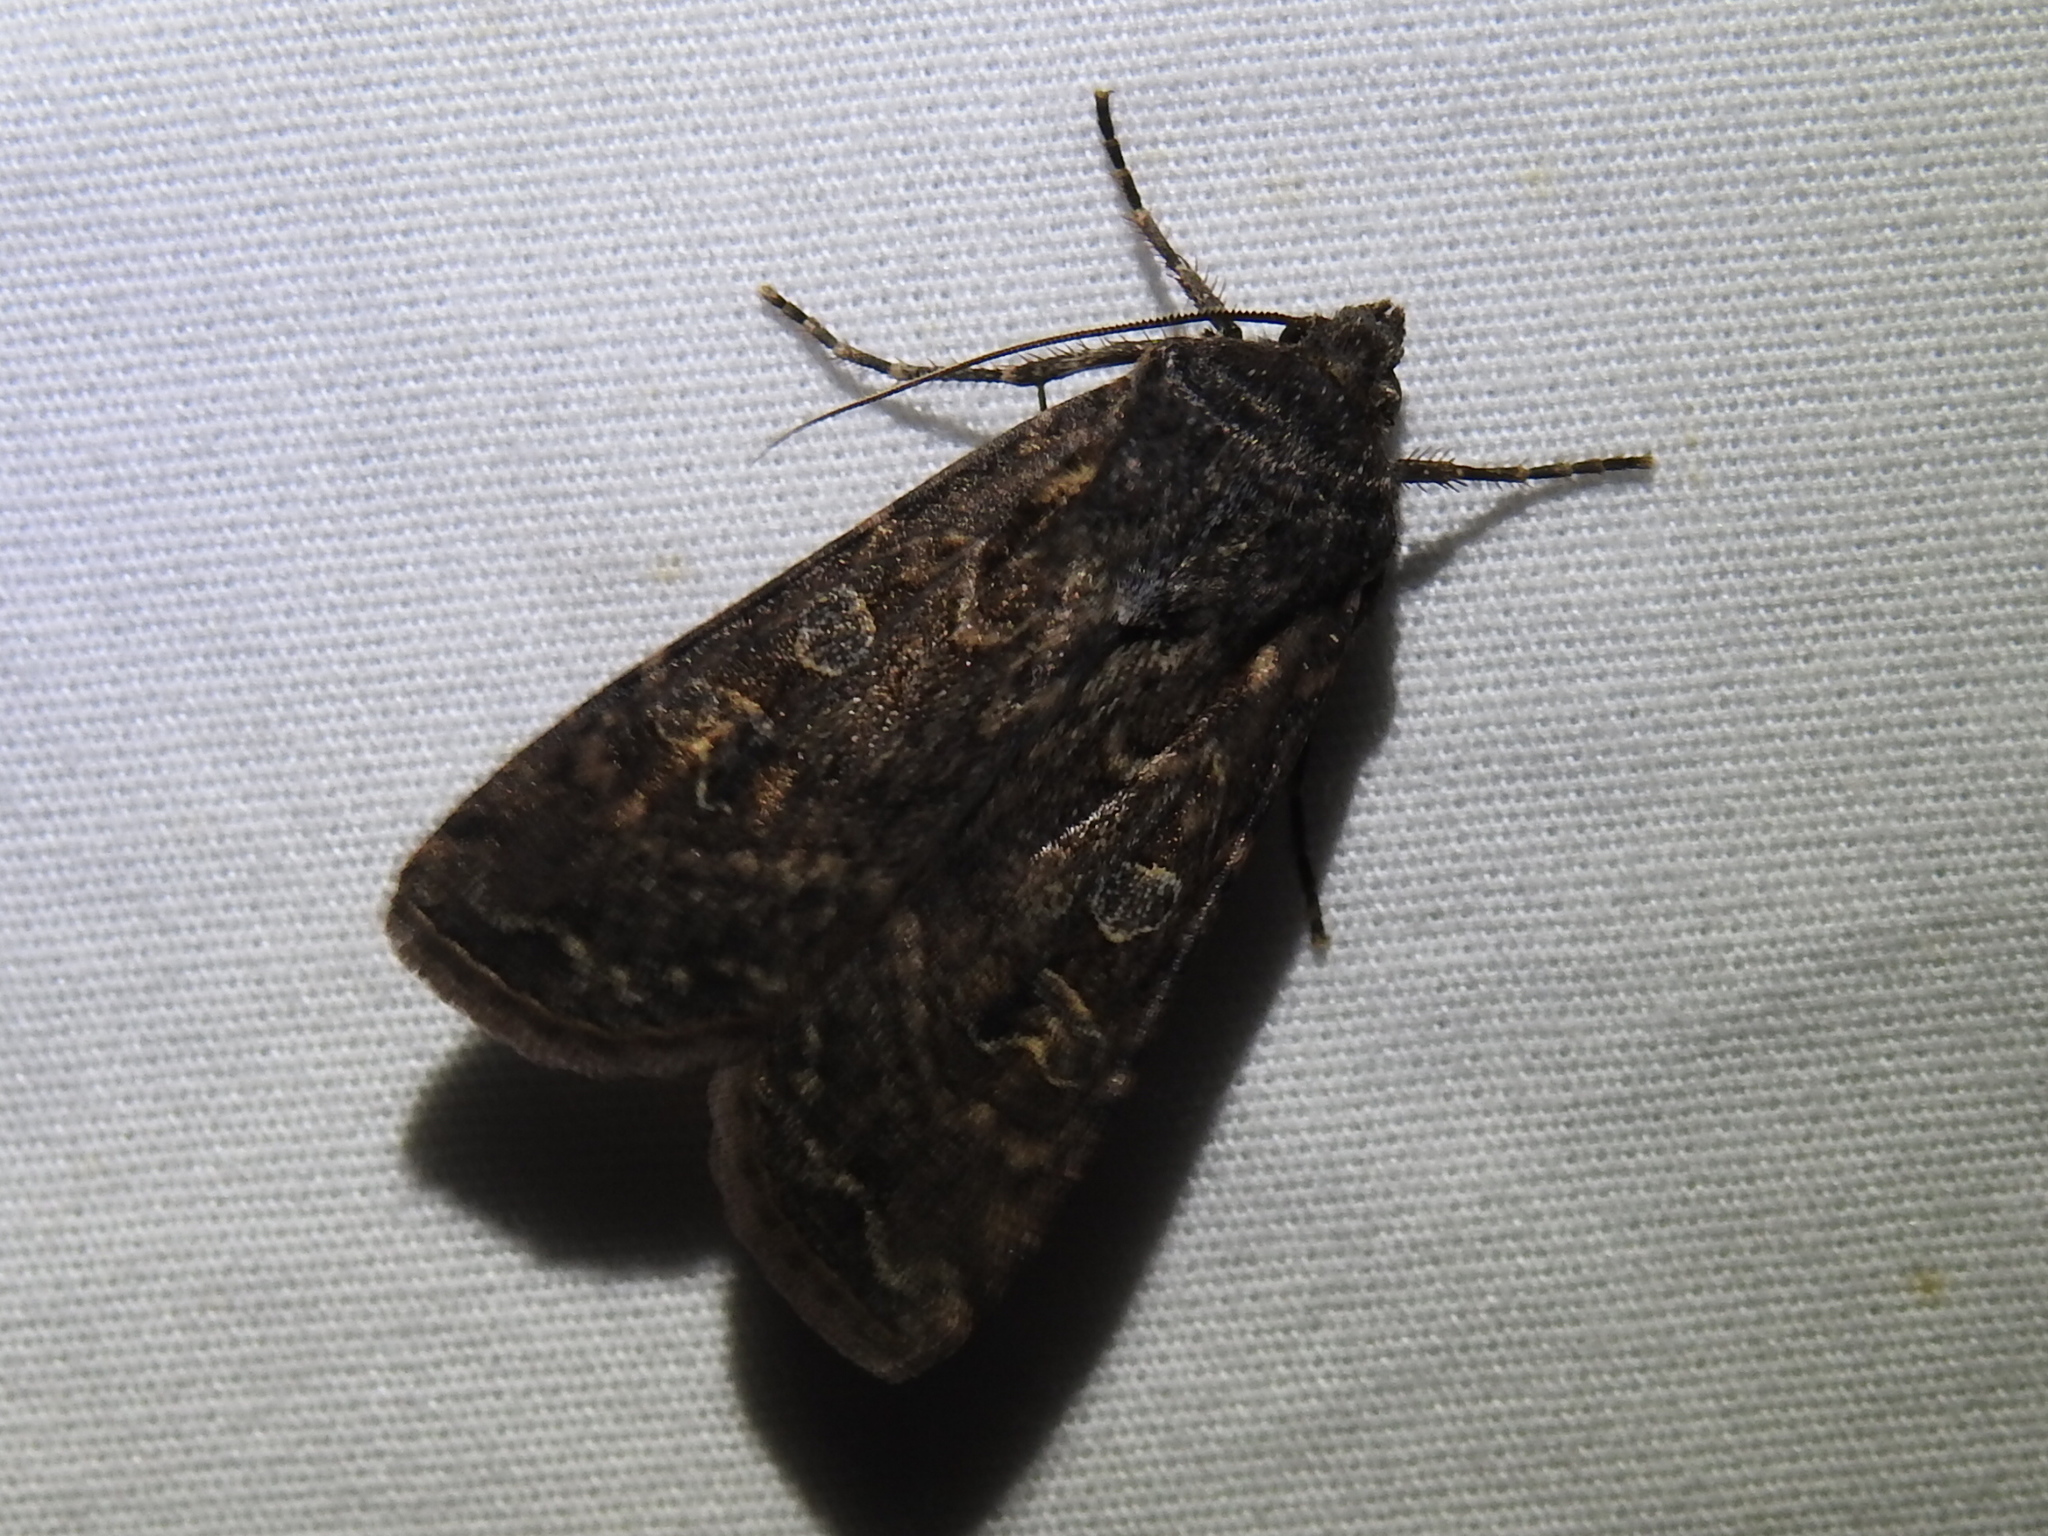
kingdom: Animalia
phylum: Arthropoda
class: Insecta
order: Lepidoptera
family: Noctuidae
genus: Peridroma
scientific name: Peridroma saucia
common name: Pearly underwing
